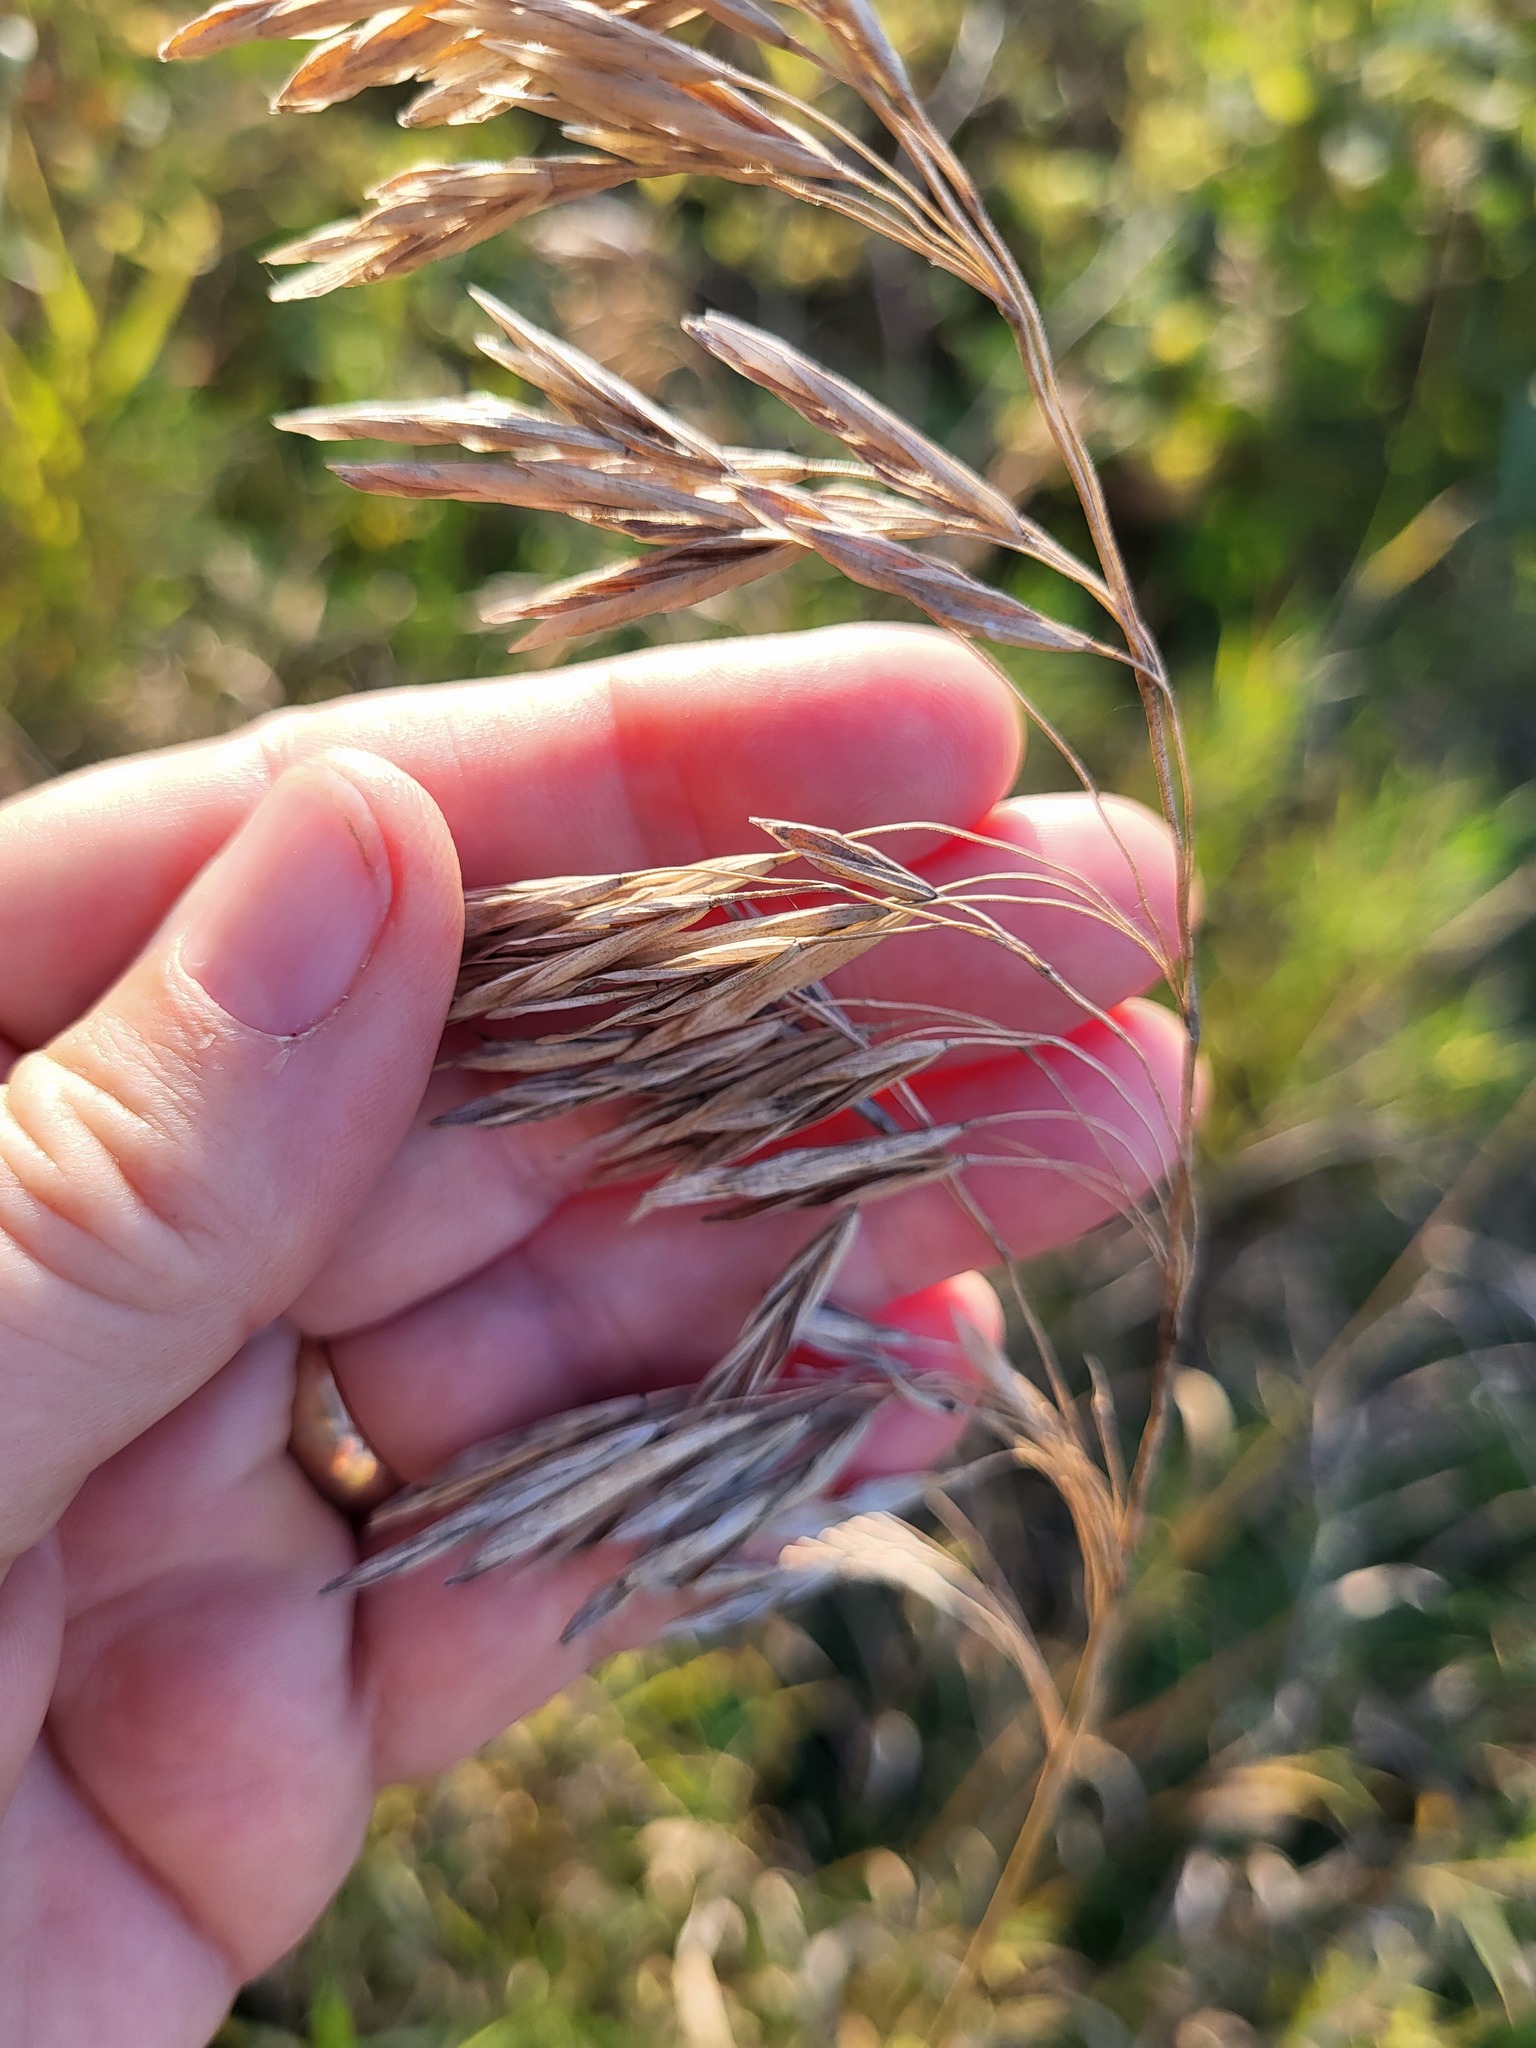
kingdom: Plantae
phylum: Tracheophyta
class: Liliopsida
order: Poales
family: Poaceae
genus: Bromus
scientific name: Bromus inermis
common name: Smooth brome
